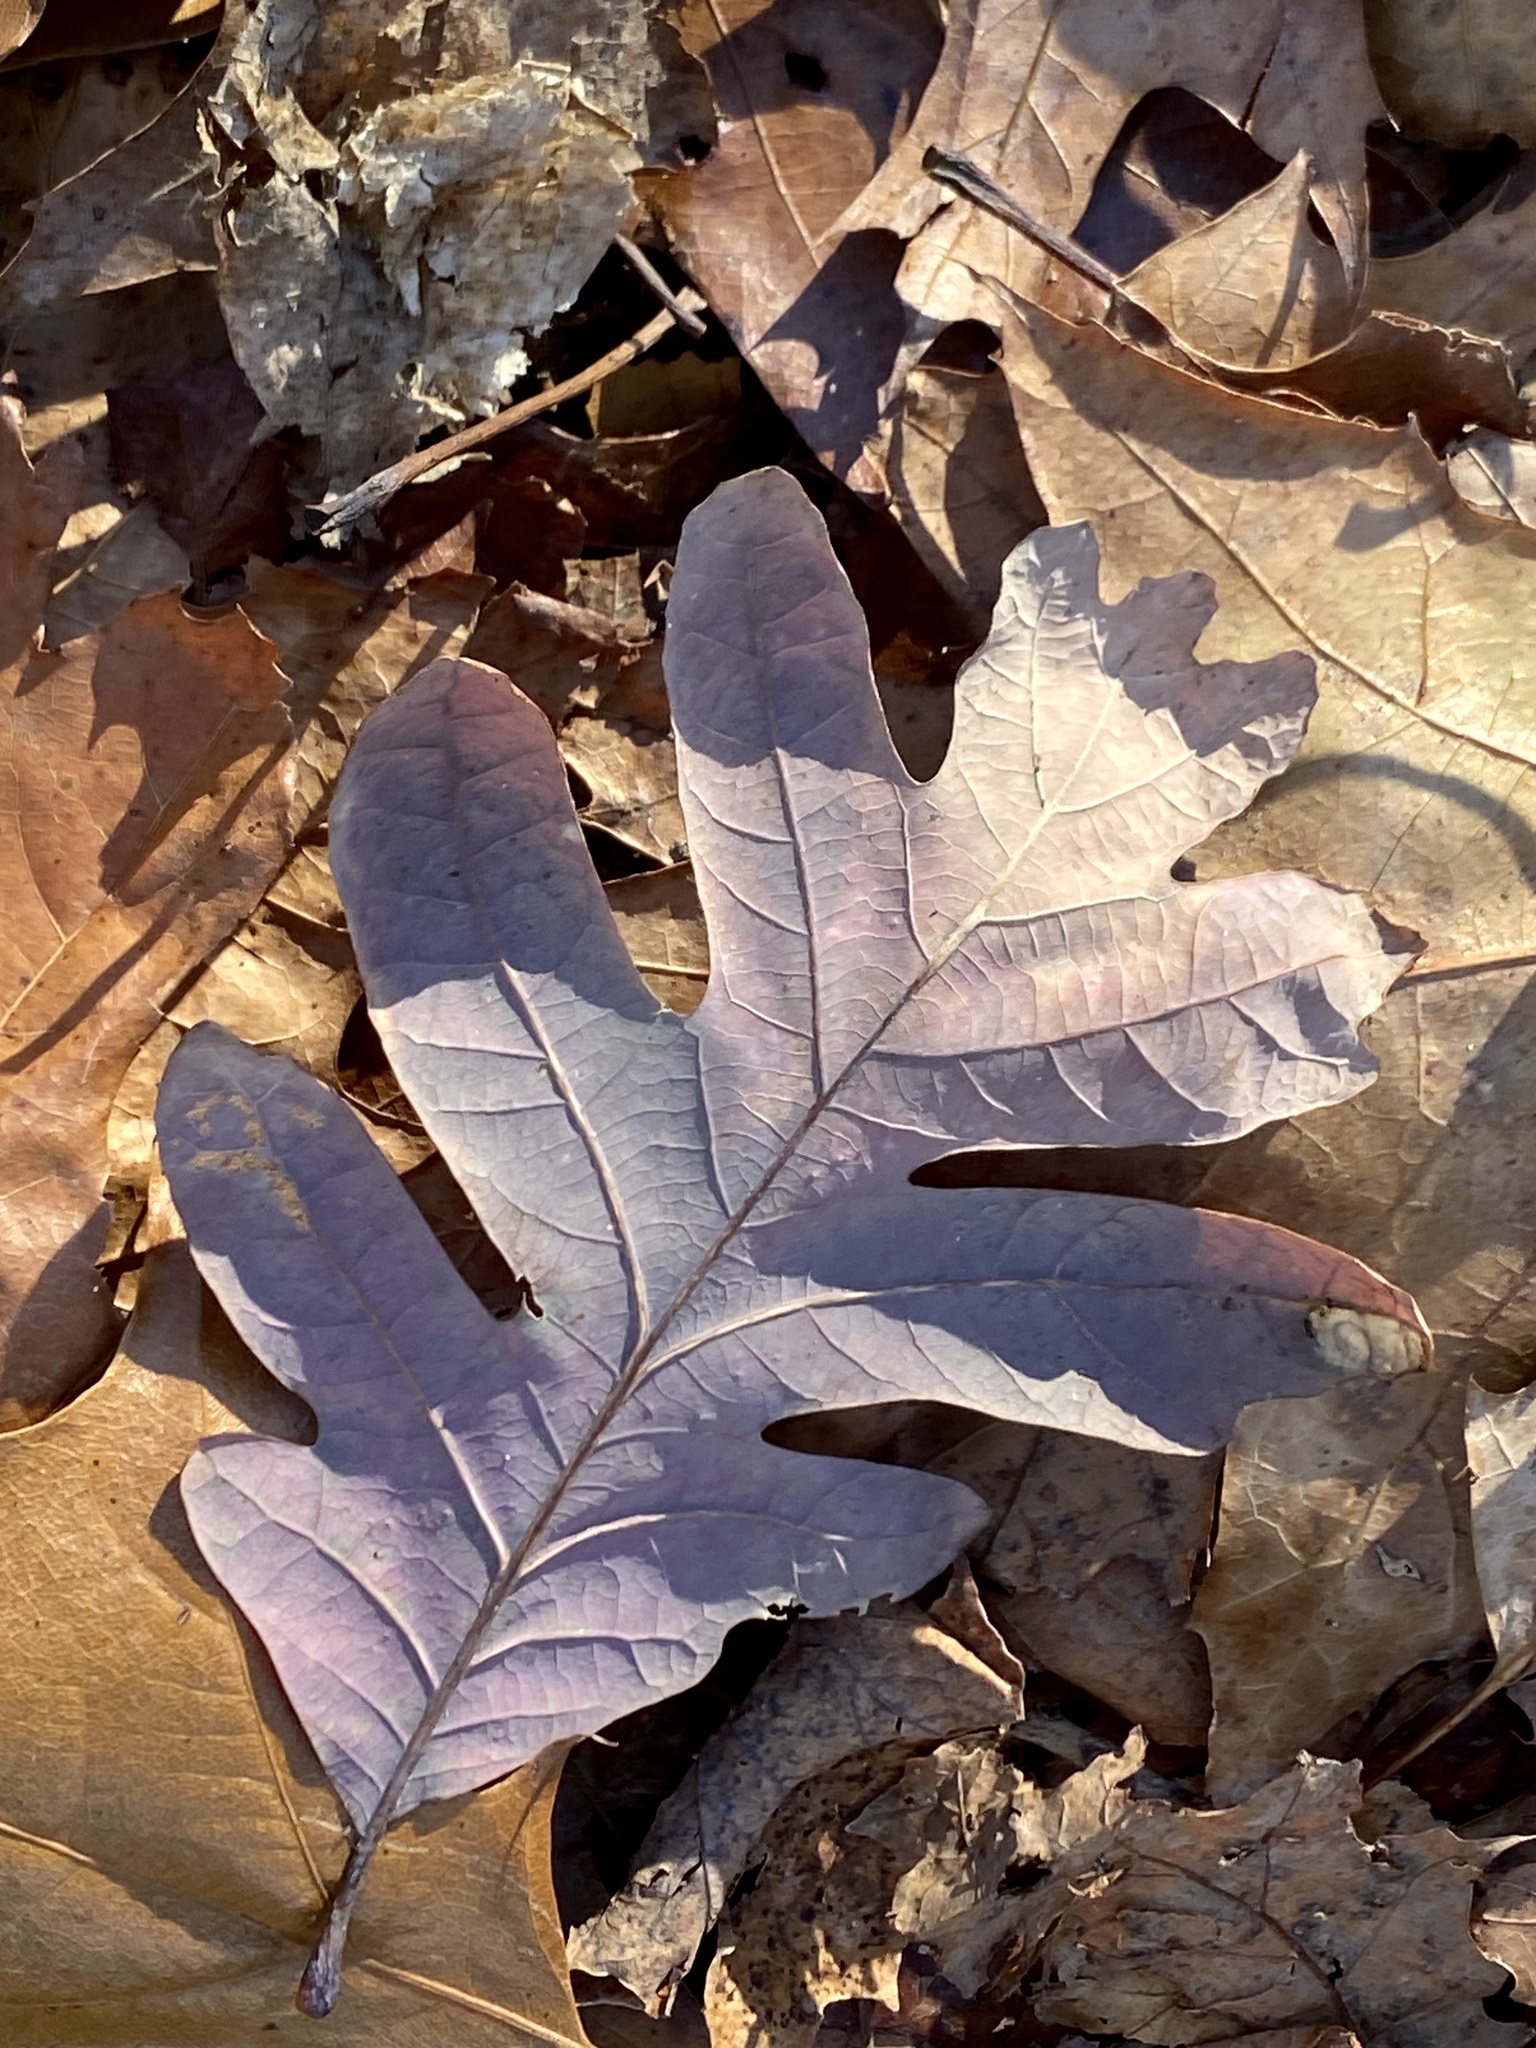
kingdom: Plantae
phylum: Tracheophyta
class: Magnoliopsida
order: Fagales
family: Fagaceae
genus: Quercus
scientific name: Quercus alba
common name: White oak
